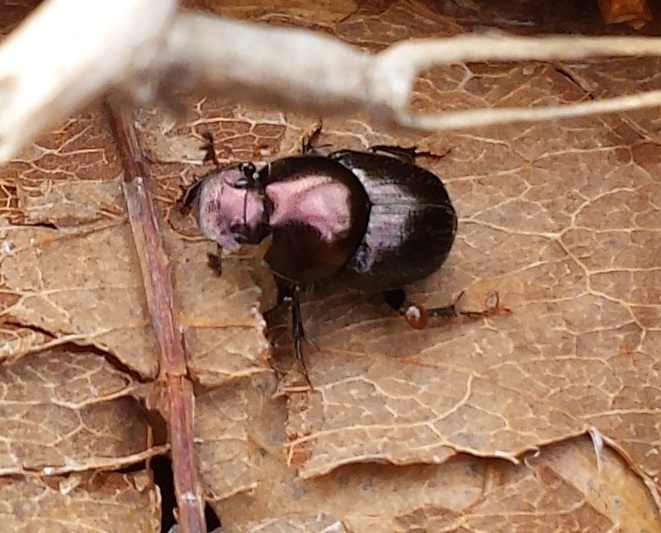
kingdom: Animalia
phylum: Arthropoda
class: Insecta
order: Coleoptera
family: Scarabaeidae
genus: Onthophagus
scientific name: Onthophagus orpheus
